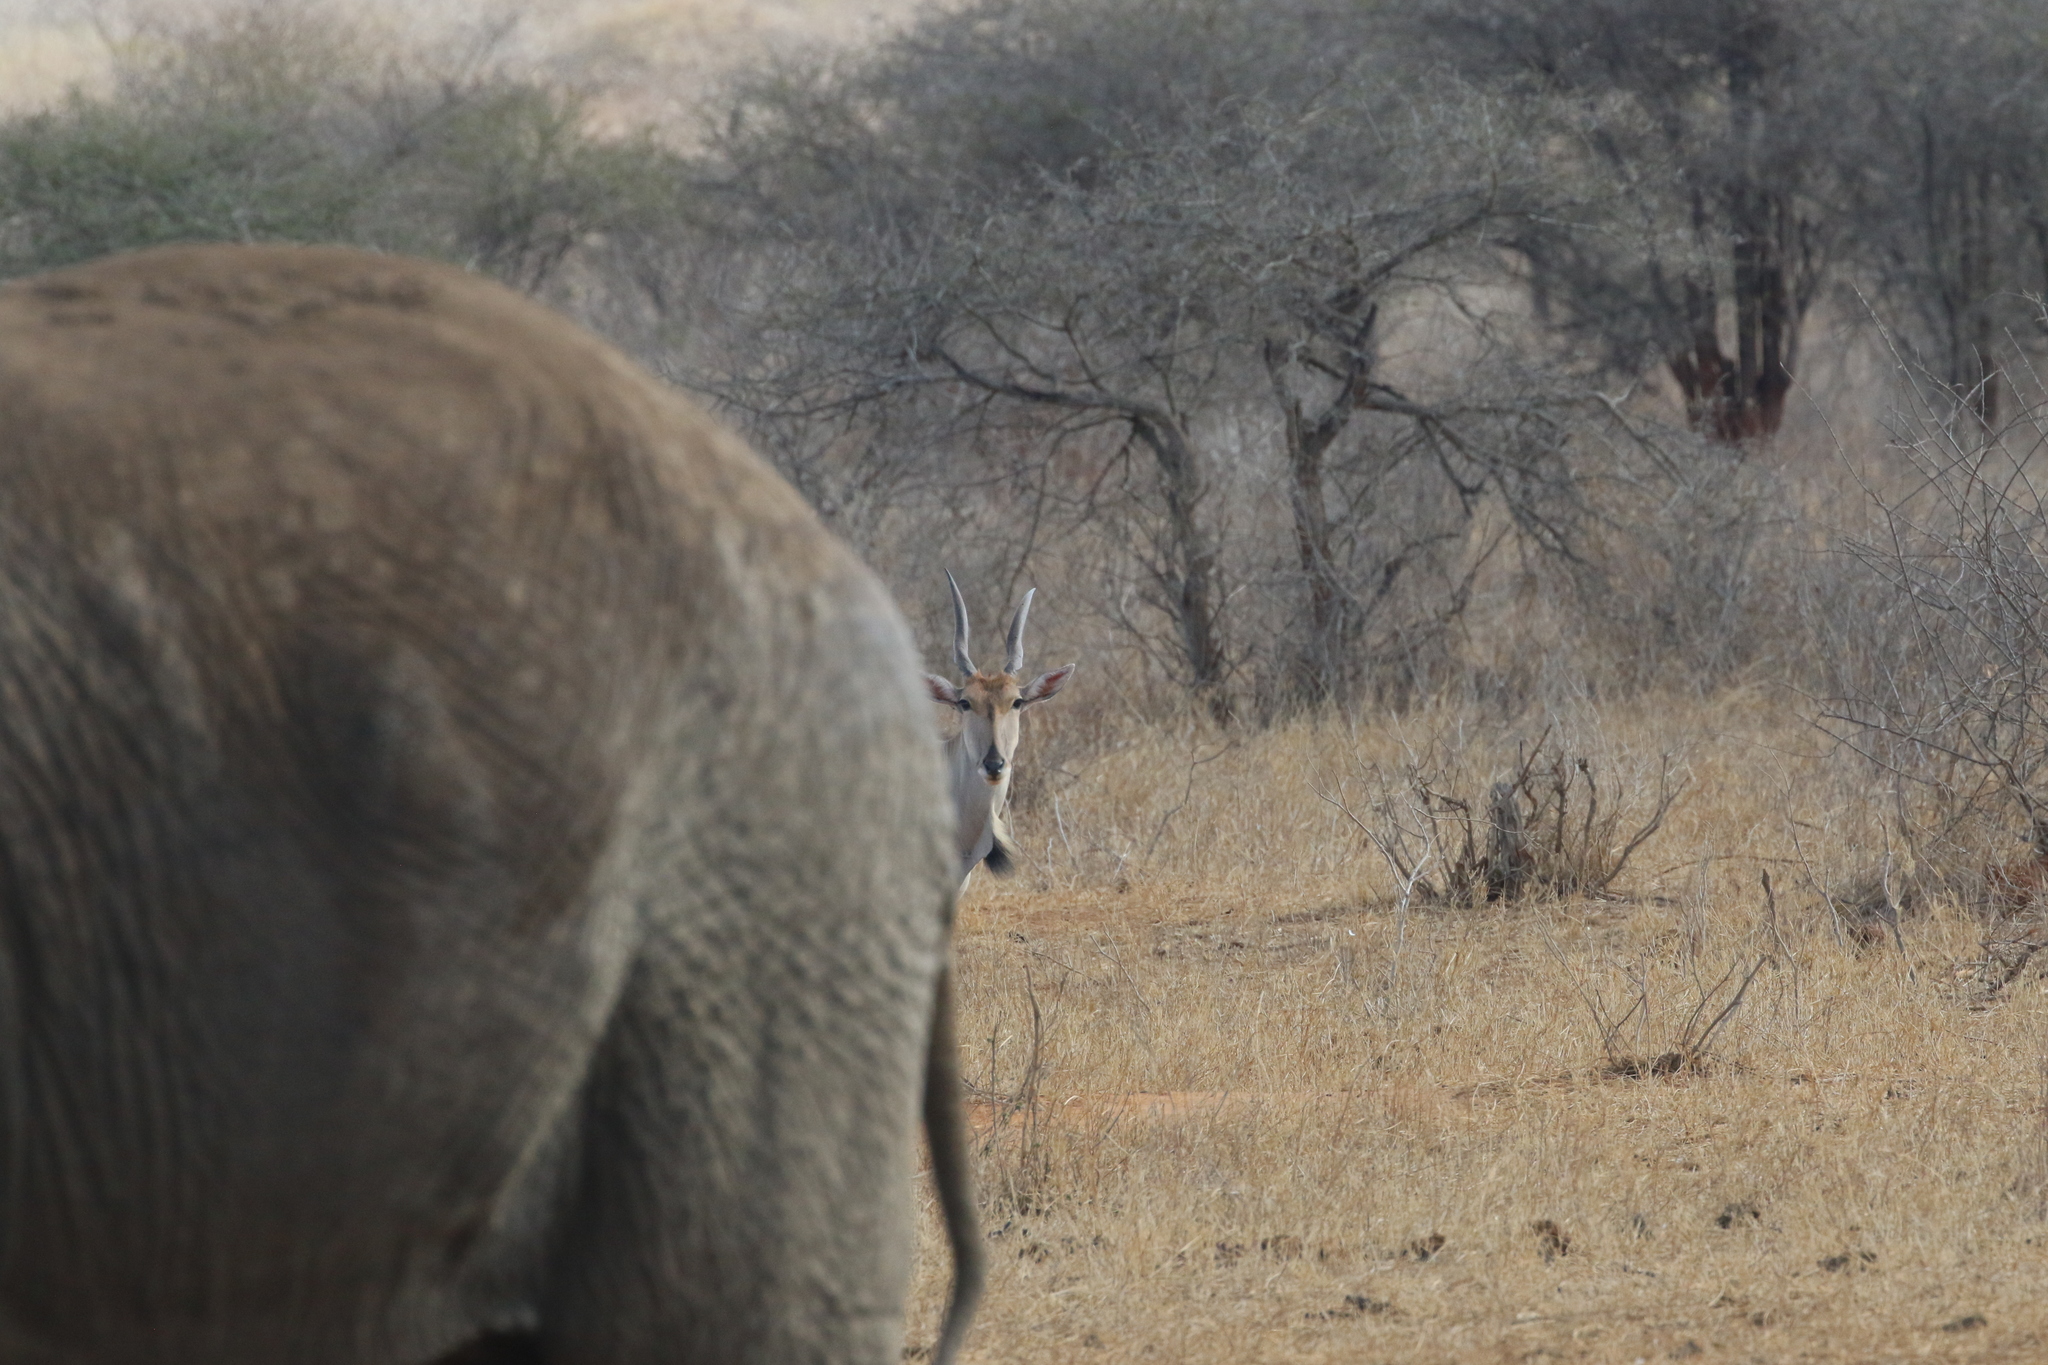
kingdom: Animalia
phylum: Chordata
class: Mammalia
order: Artiodactyla
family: Bovidae
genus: Taurotragus
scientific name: Taurotragus oryx
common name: Common eland
